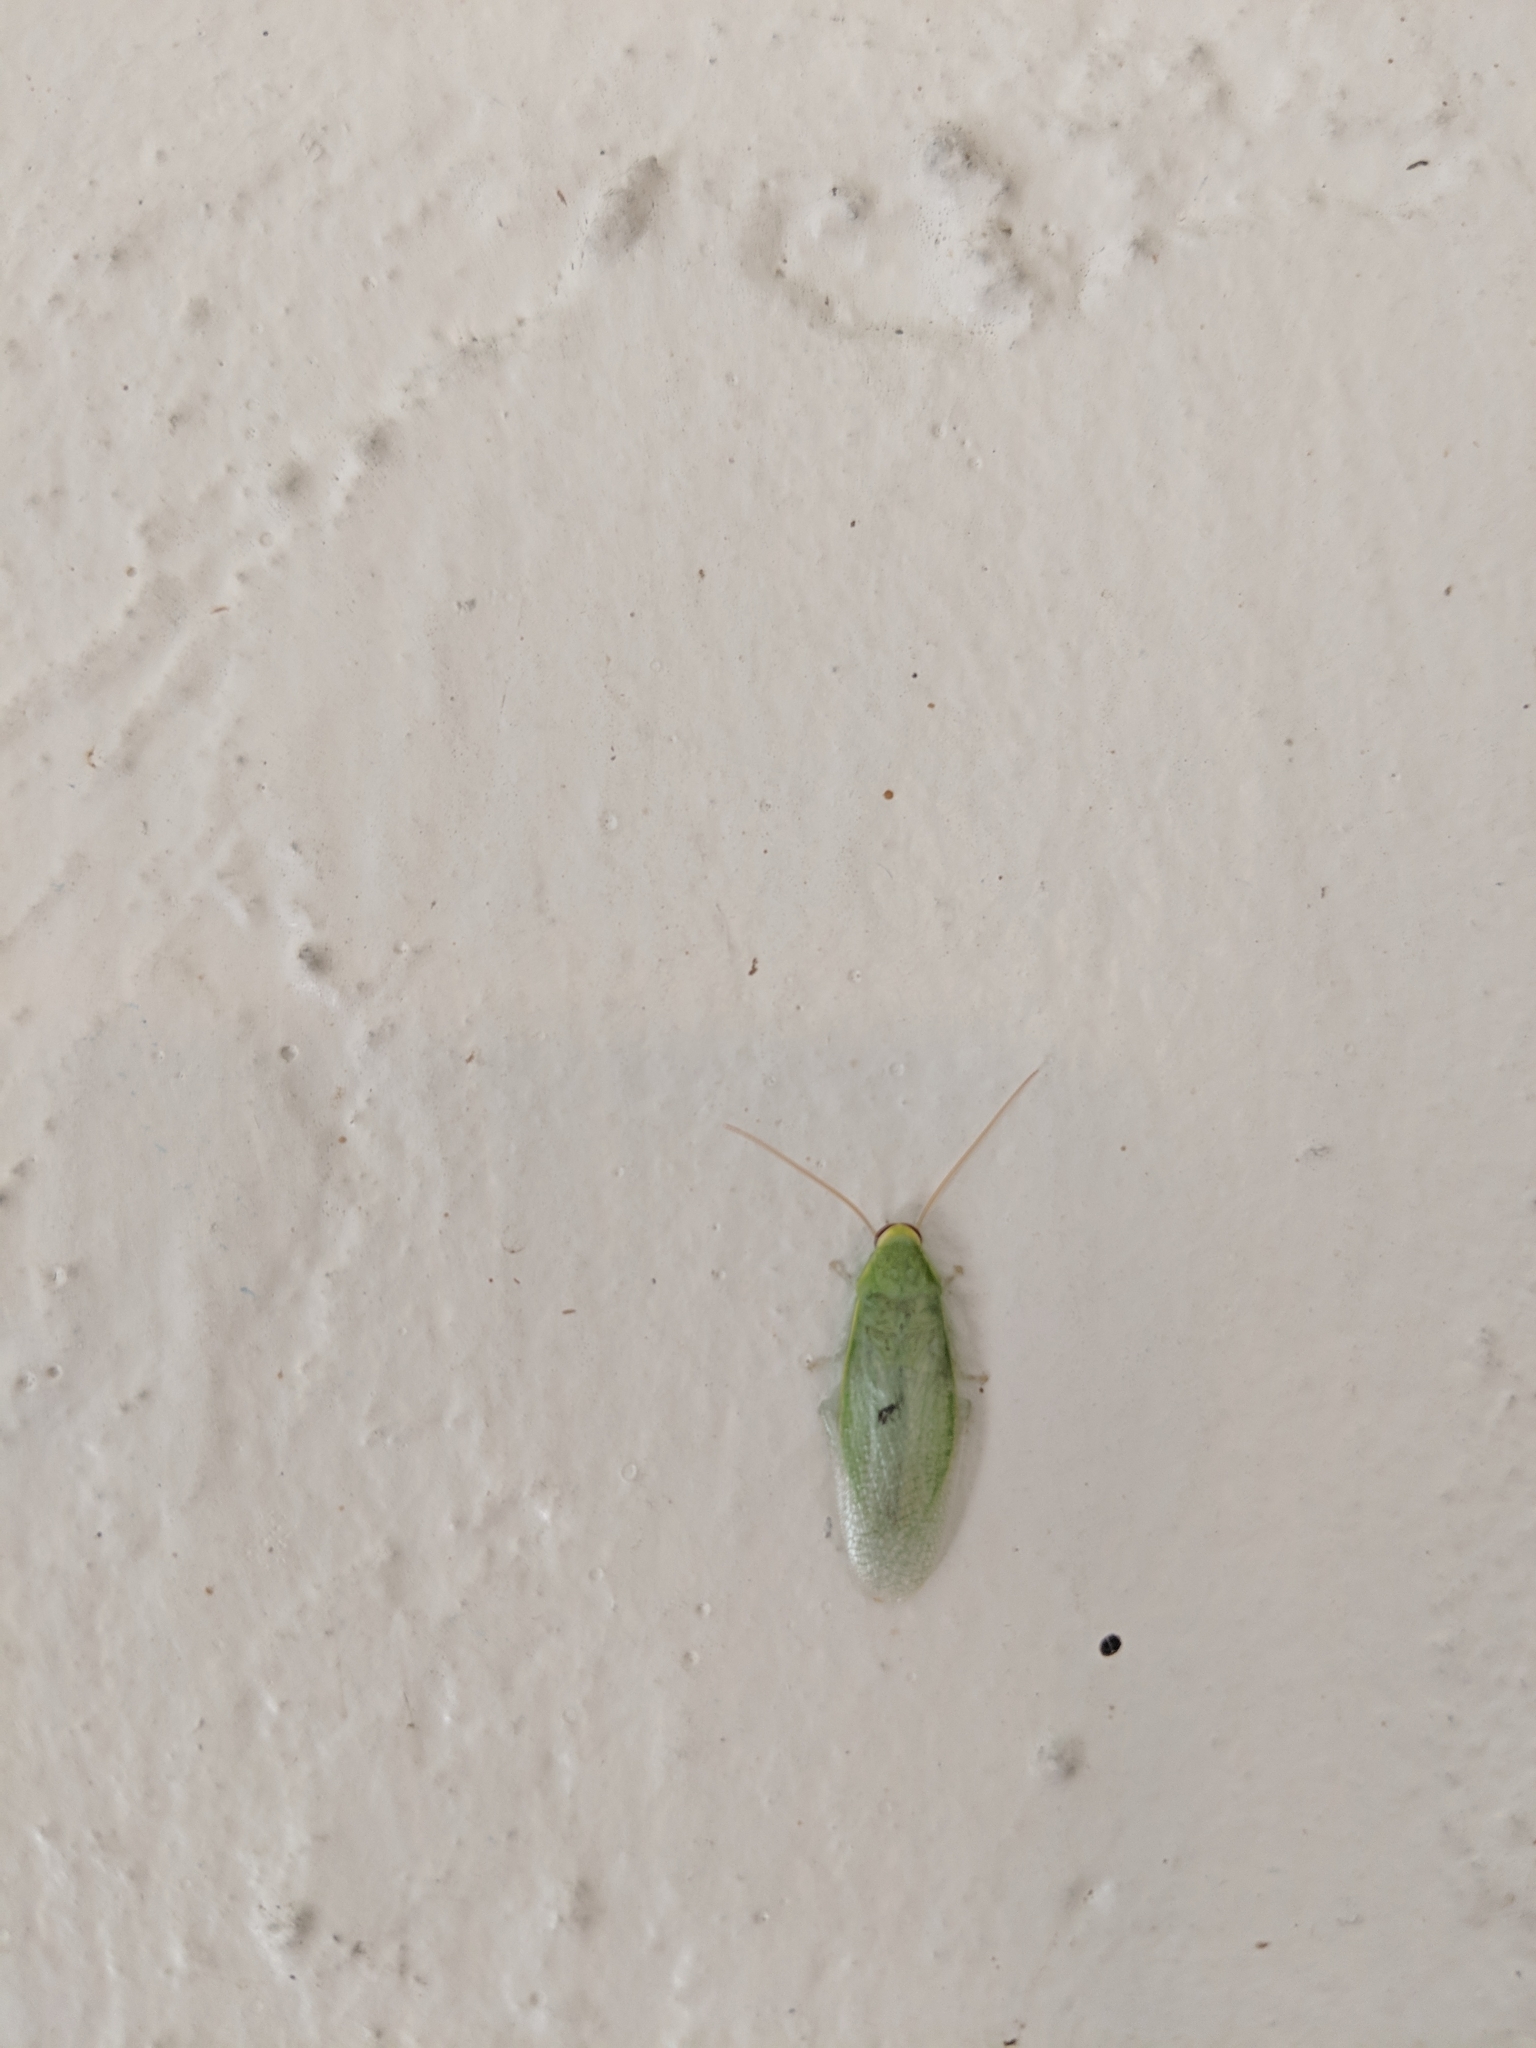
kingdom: Animalia
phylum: Arthropoda
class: Insecta
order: Blattodea
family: Blaberidae
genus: Panchlora
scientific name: Panchlora nivea
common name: Cuban cockroach
